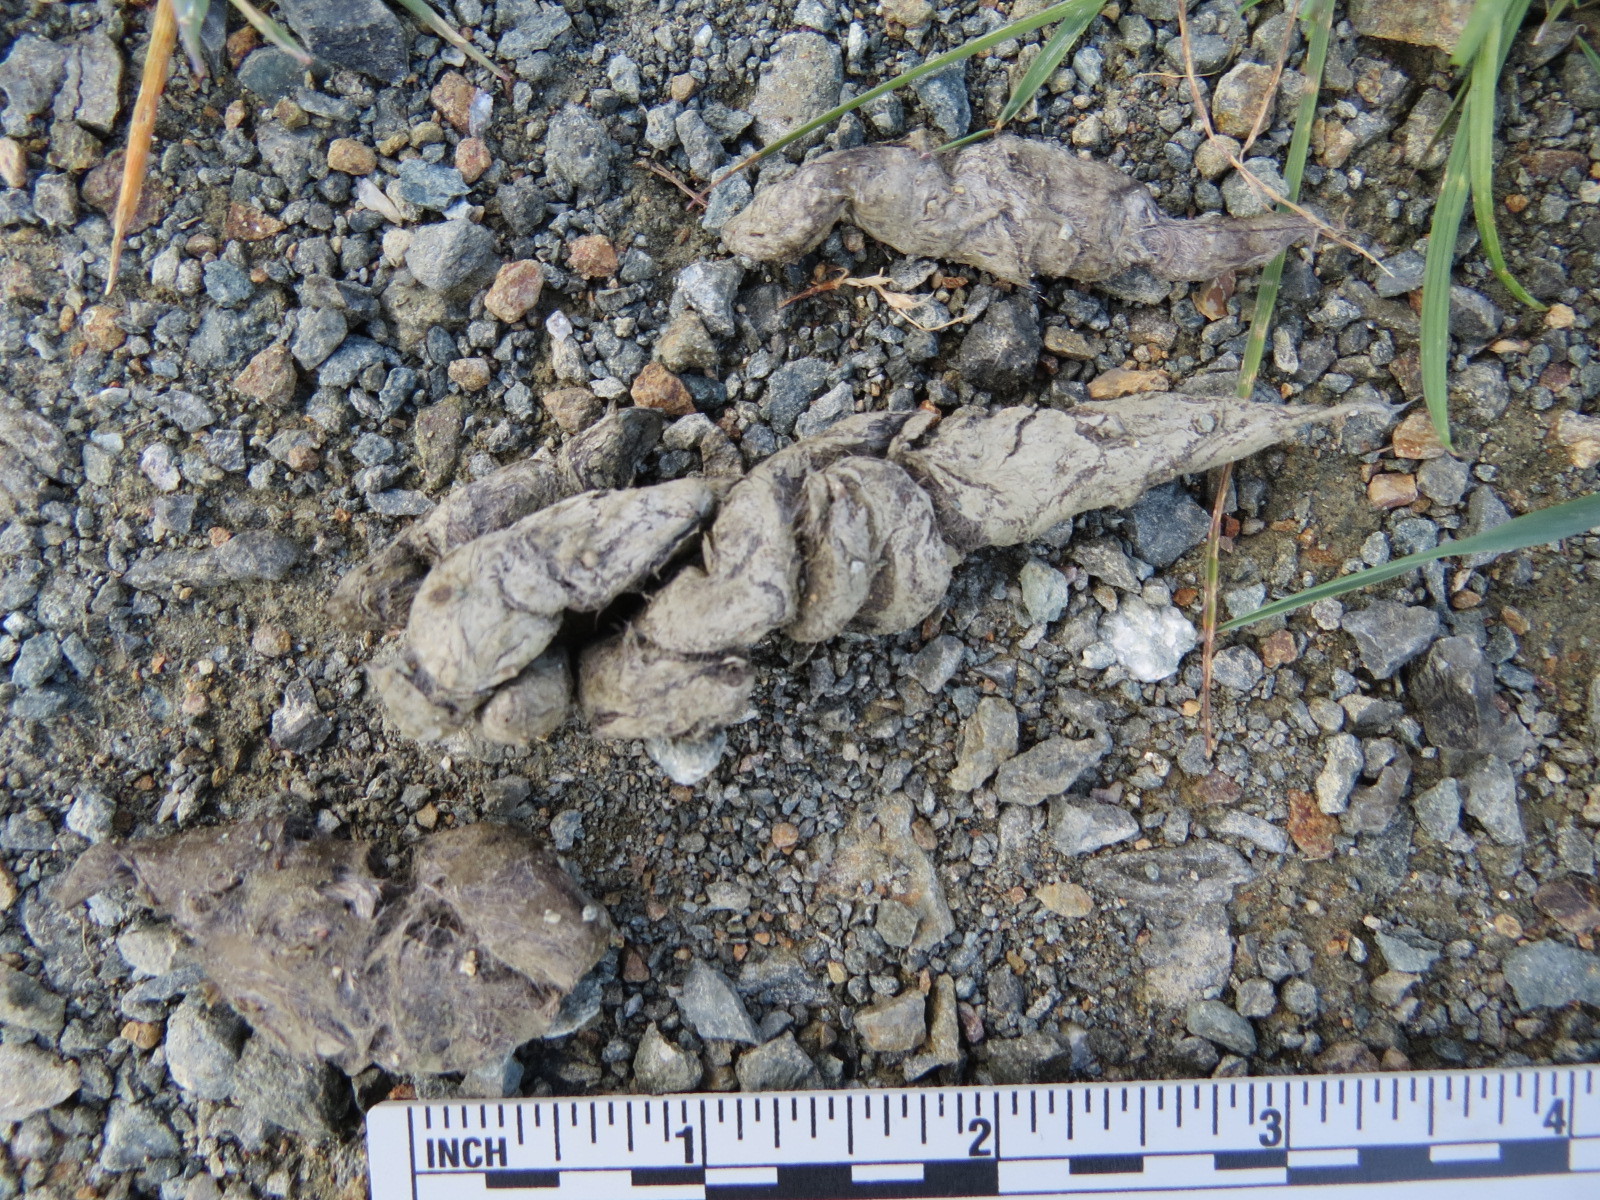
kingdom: Animalia
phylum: Chordata
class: Mammalia
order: Carnivora
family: Canidae
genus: Urocyon
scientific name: Urocyon cinereoargenteus
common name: Gray fox
